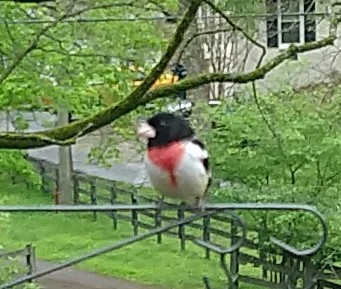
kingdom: Animalia
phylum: Chordata
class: Aves
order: Passeriformes
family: Cardinalidae
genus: Pheucticus
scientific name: Pheucticus ludovicianus
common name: Rose-breasted grosbeak
